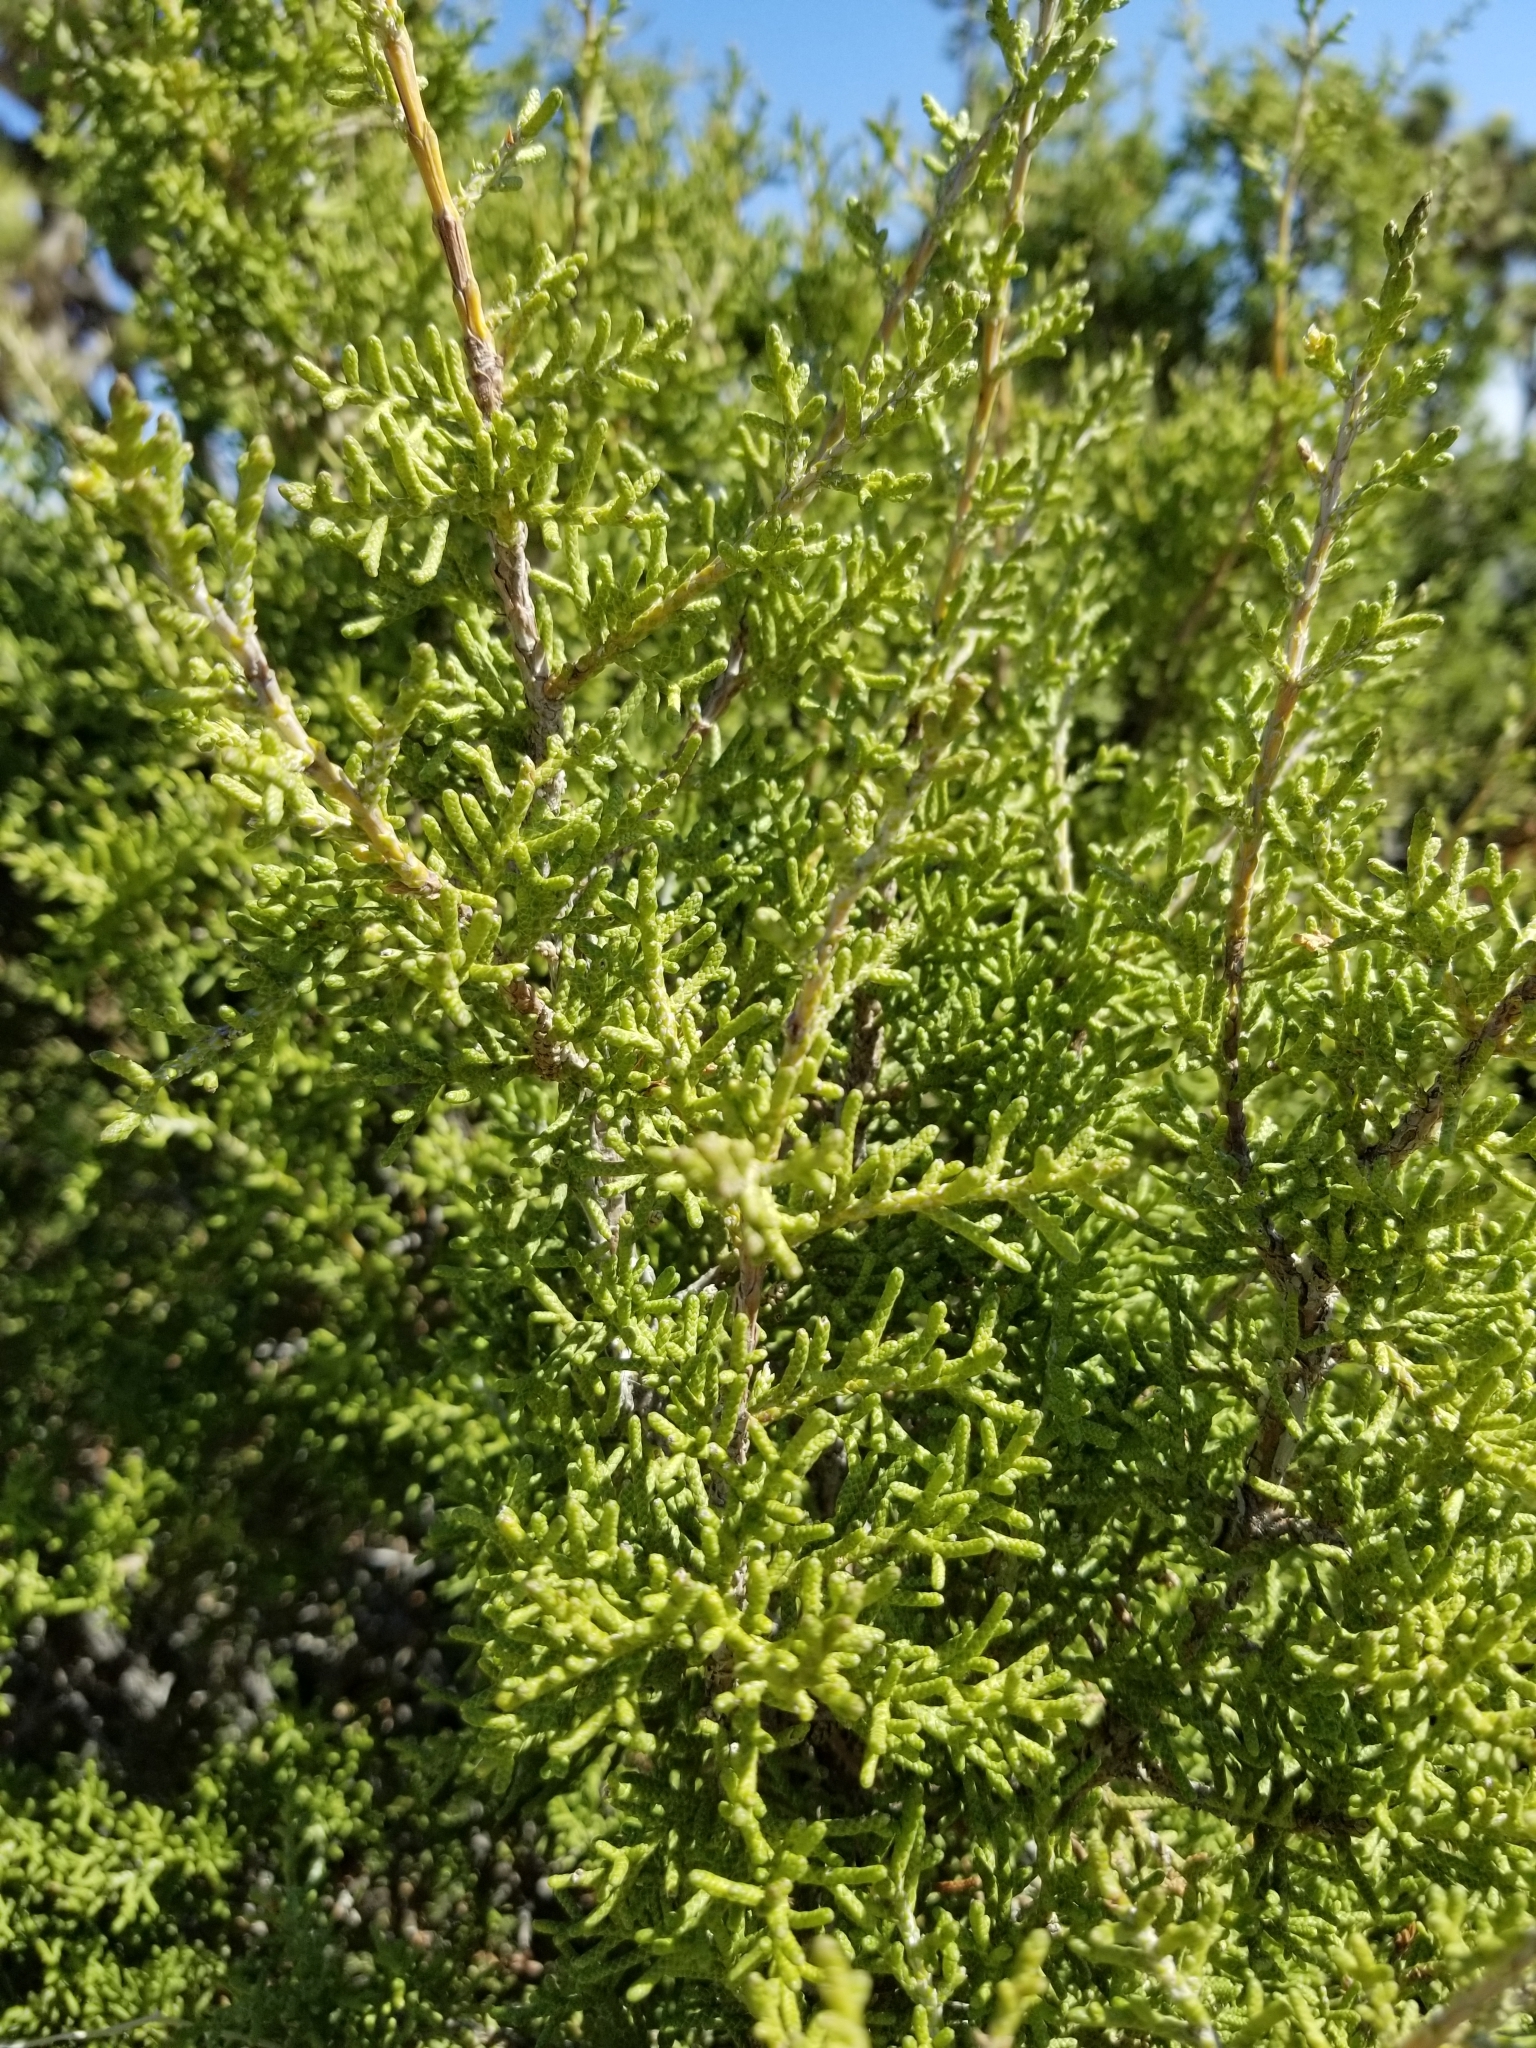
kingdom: Plantae
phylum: Tracheophyta
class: Pinopsida
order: Pinales
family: Cupressaceae
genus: Juniperus
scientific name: Juniperus californica
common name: California juniper
